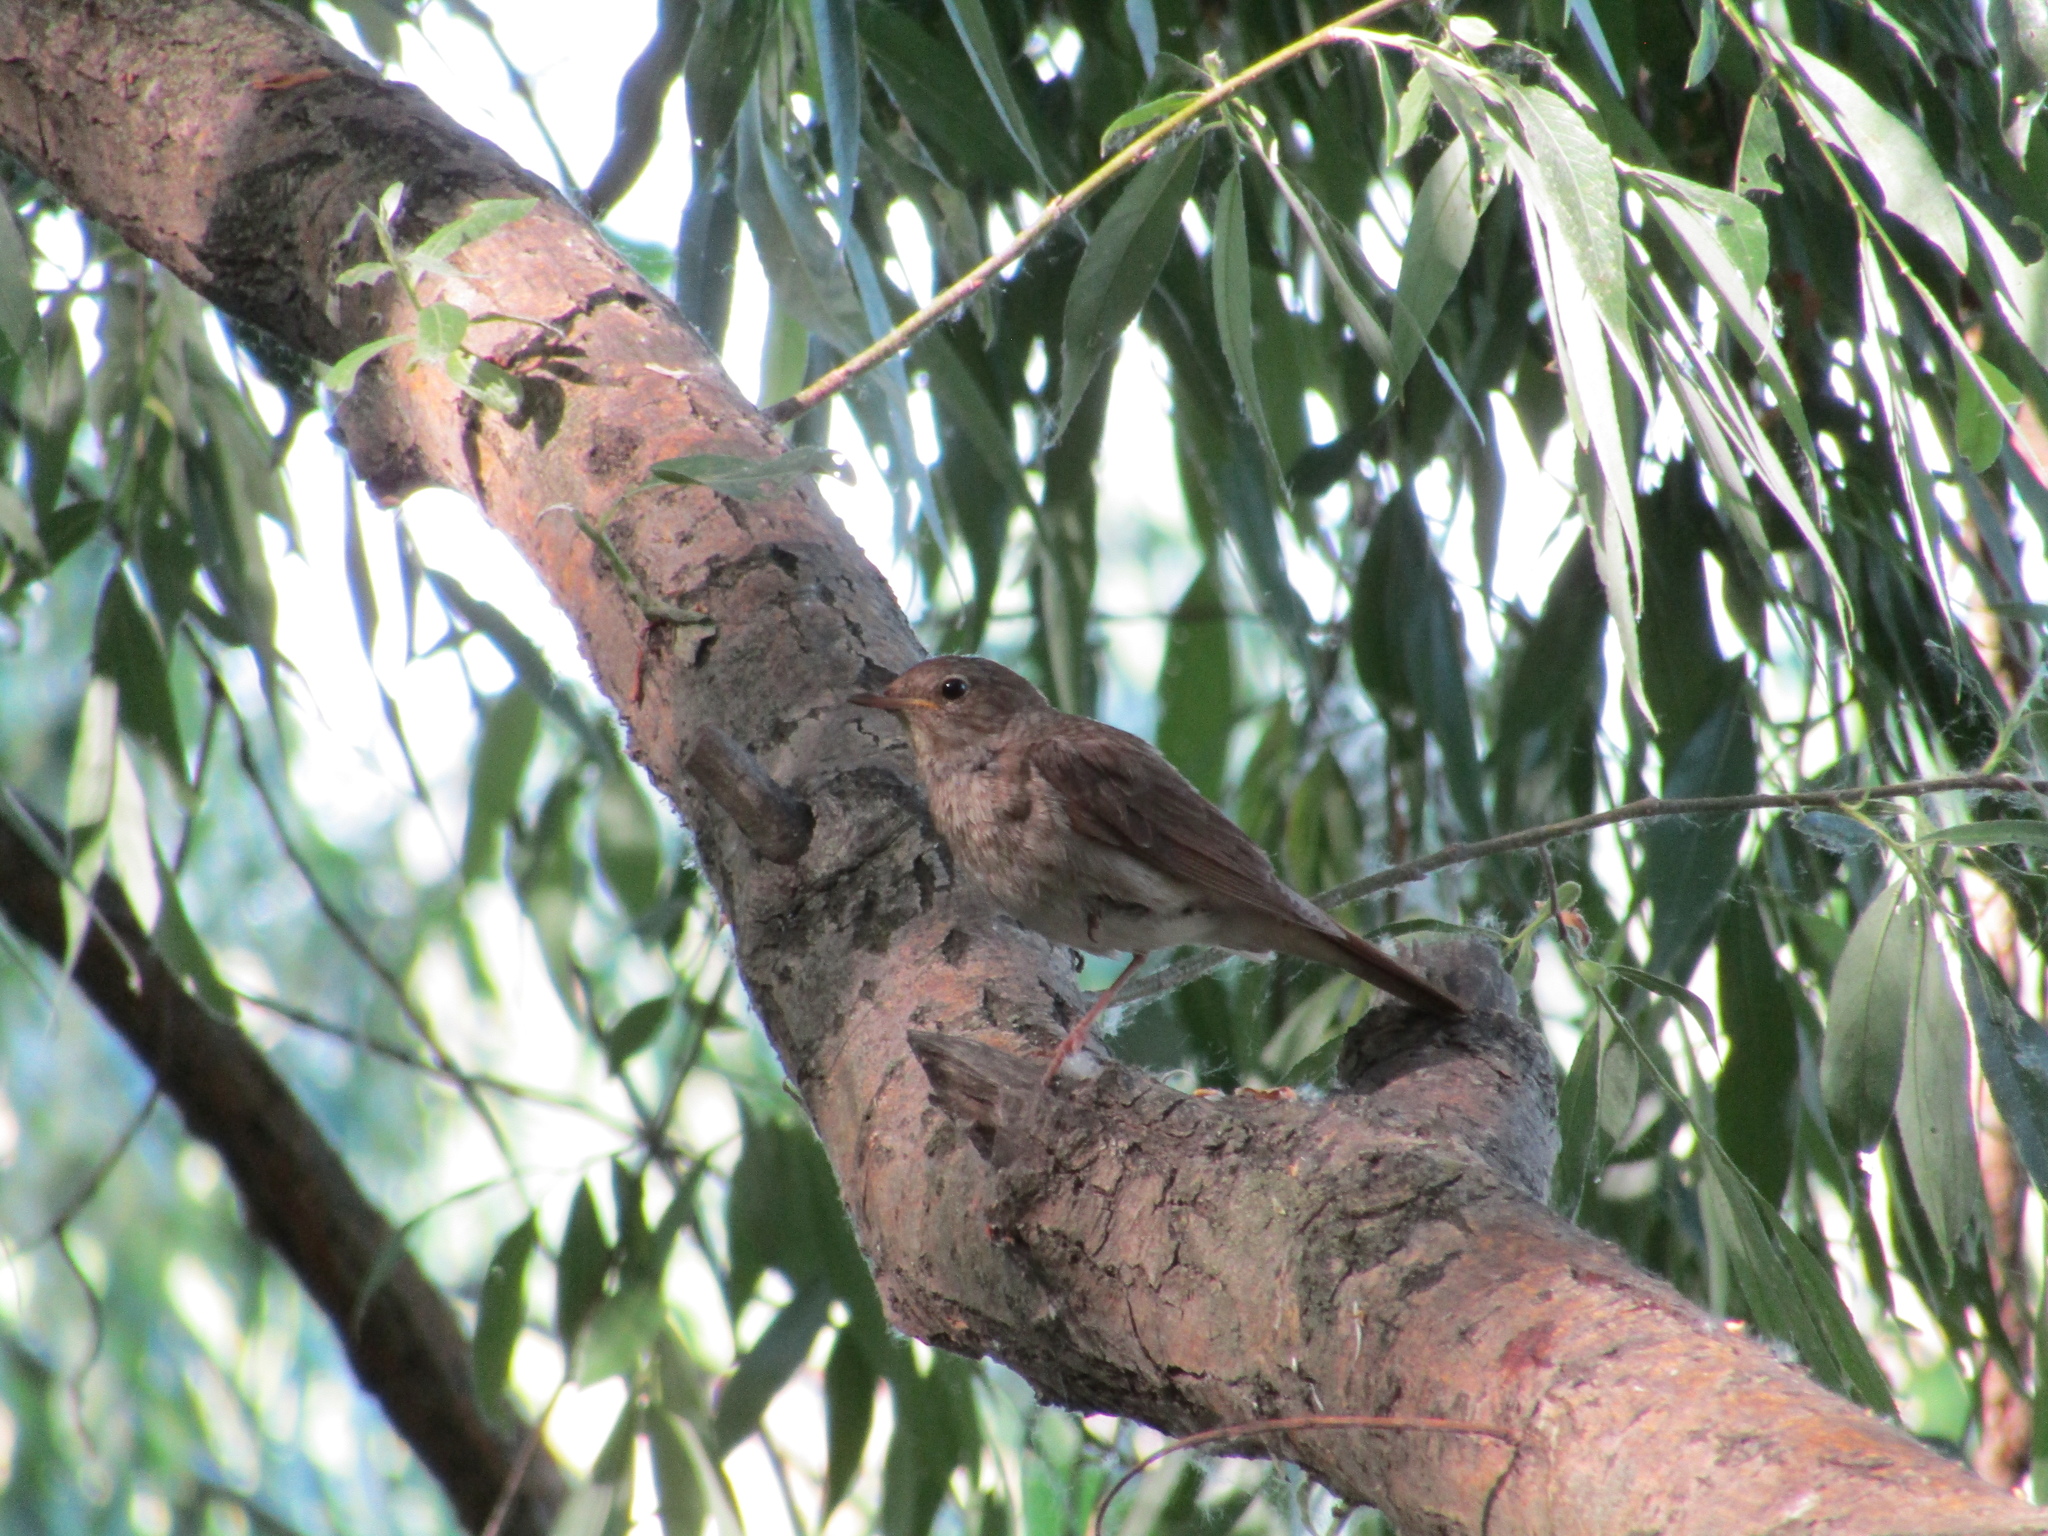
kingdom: Animalia
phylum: Chordata
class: Aves
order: Passeriformes
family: Muscicapidae
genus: Luscinia
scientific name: Luscinia luscinia
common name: Thrush nightingale
